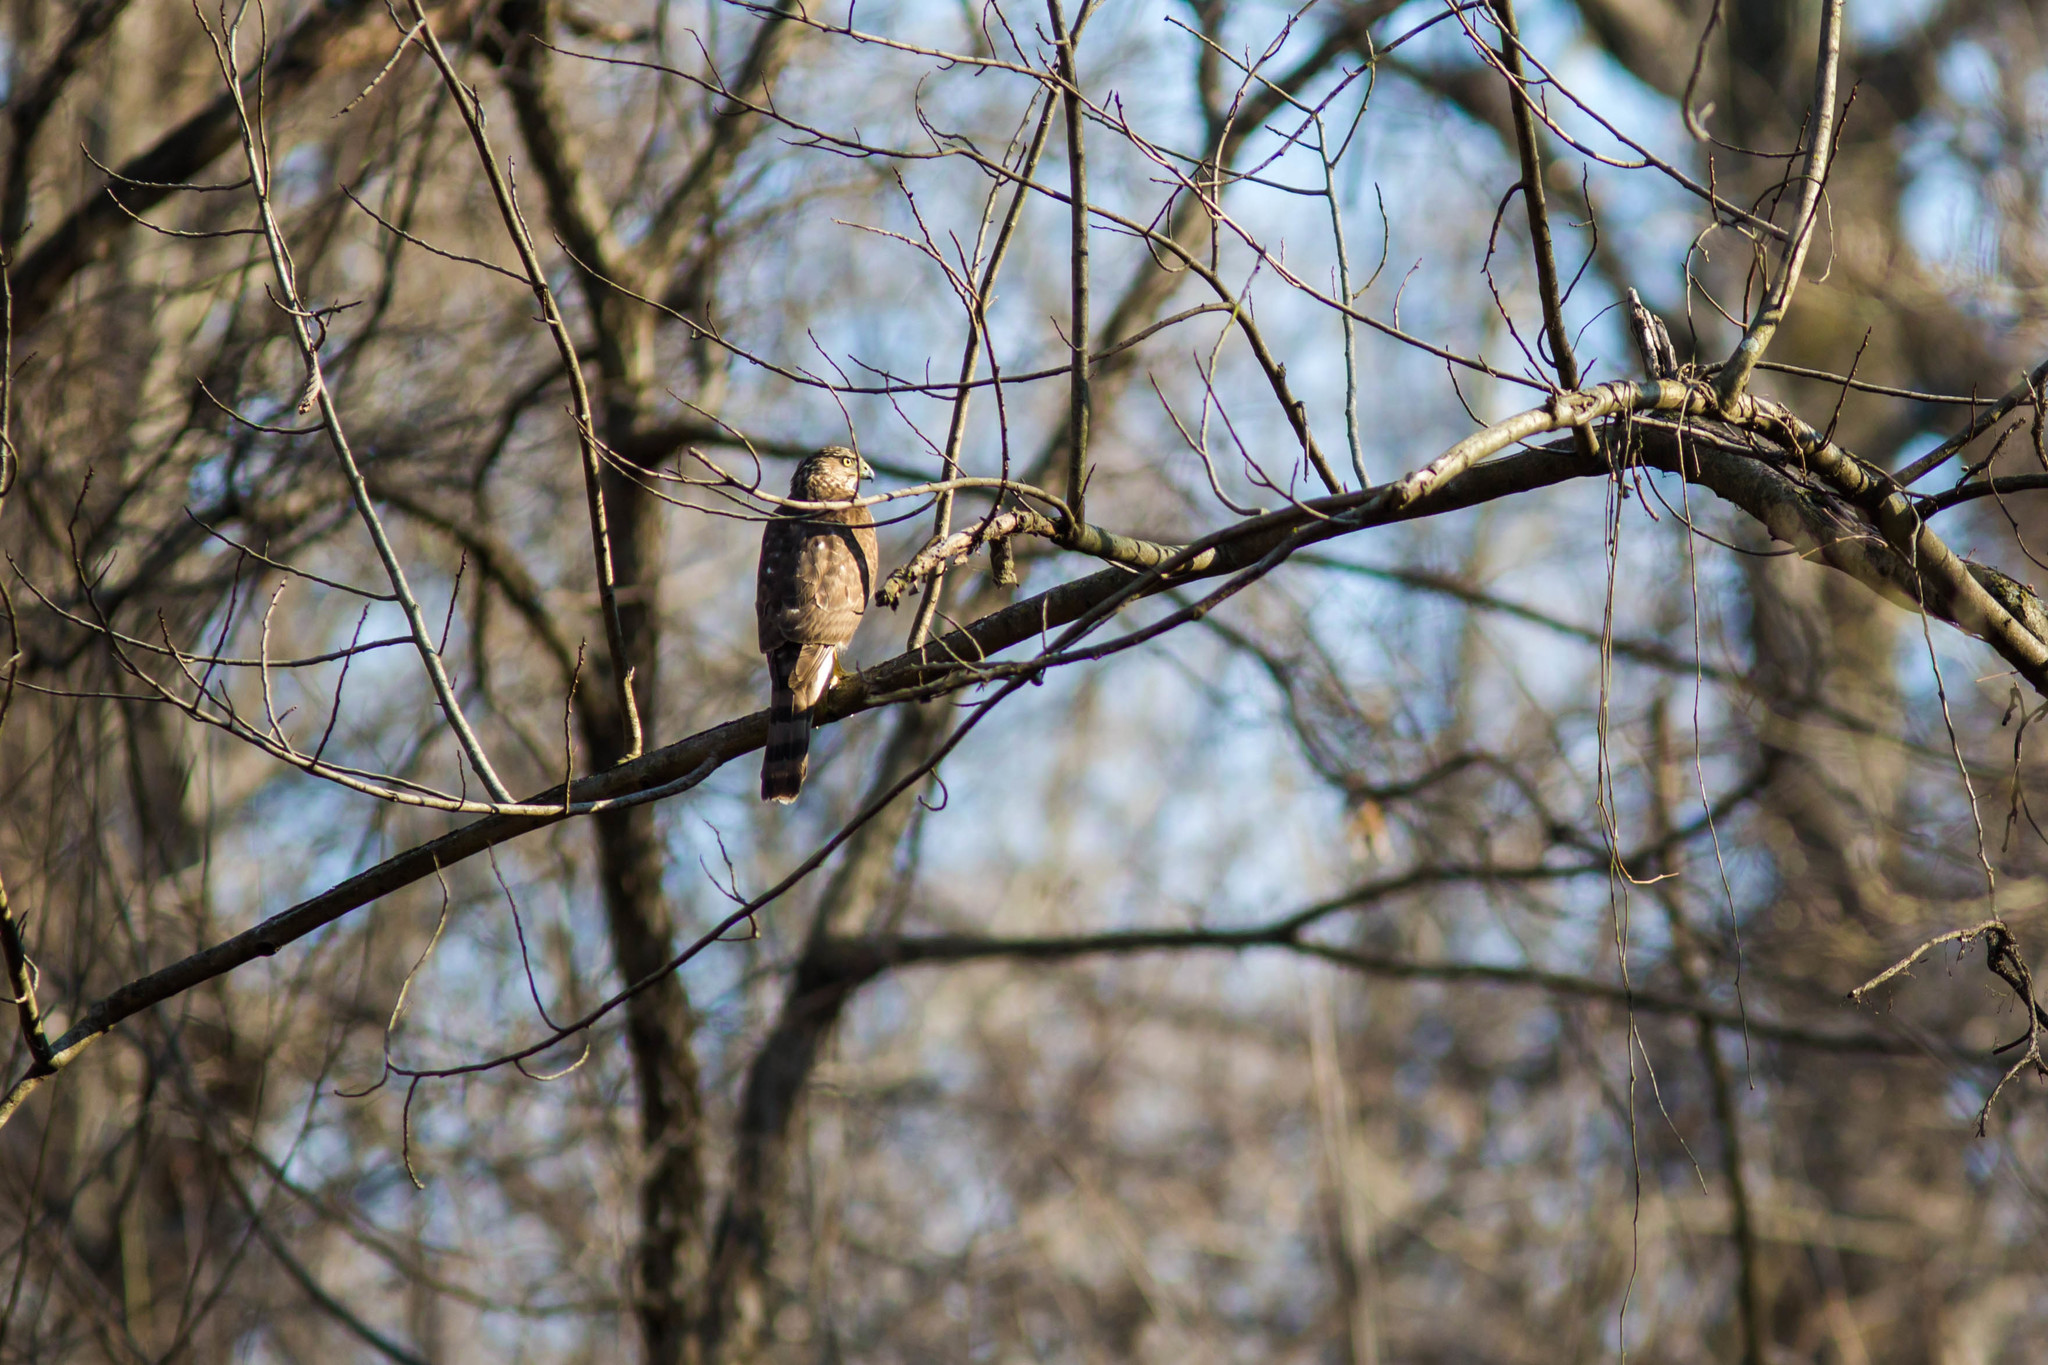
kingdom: Animalia
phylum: Chordata
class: Aves
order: Accipitriformes
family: Accipitridae
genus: Accipiter
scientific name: Accipiter cooperii
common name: Cooper's hawk
